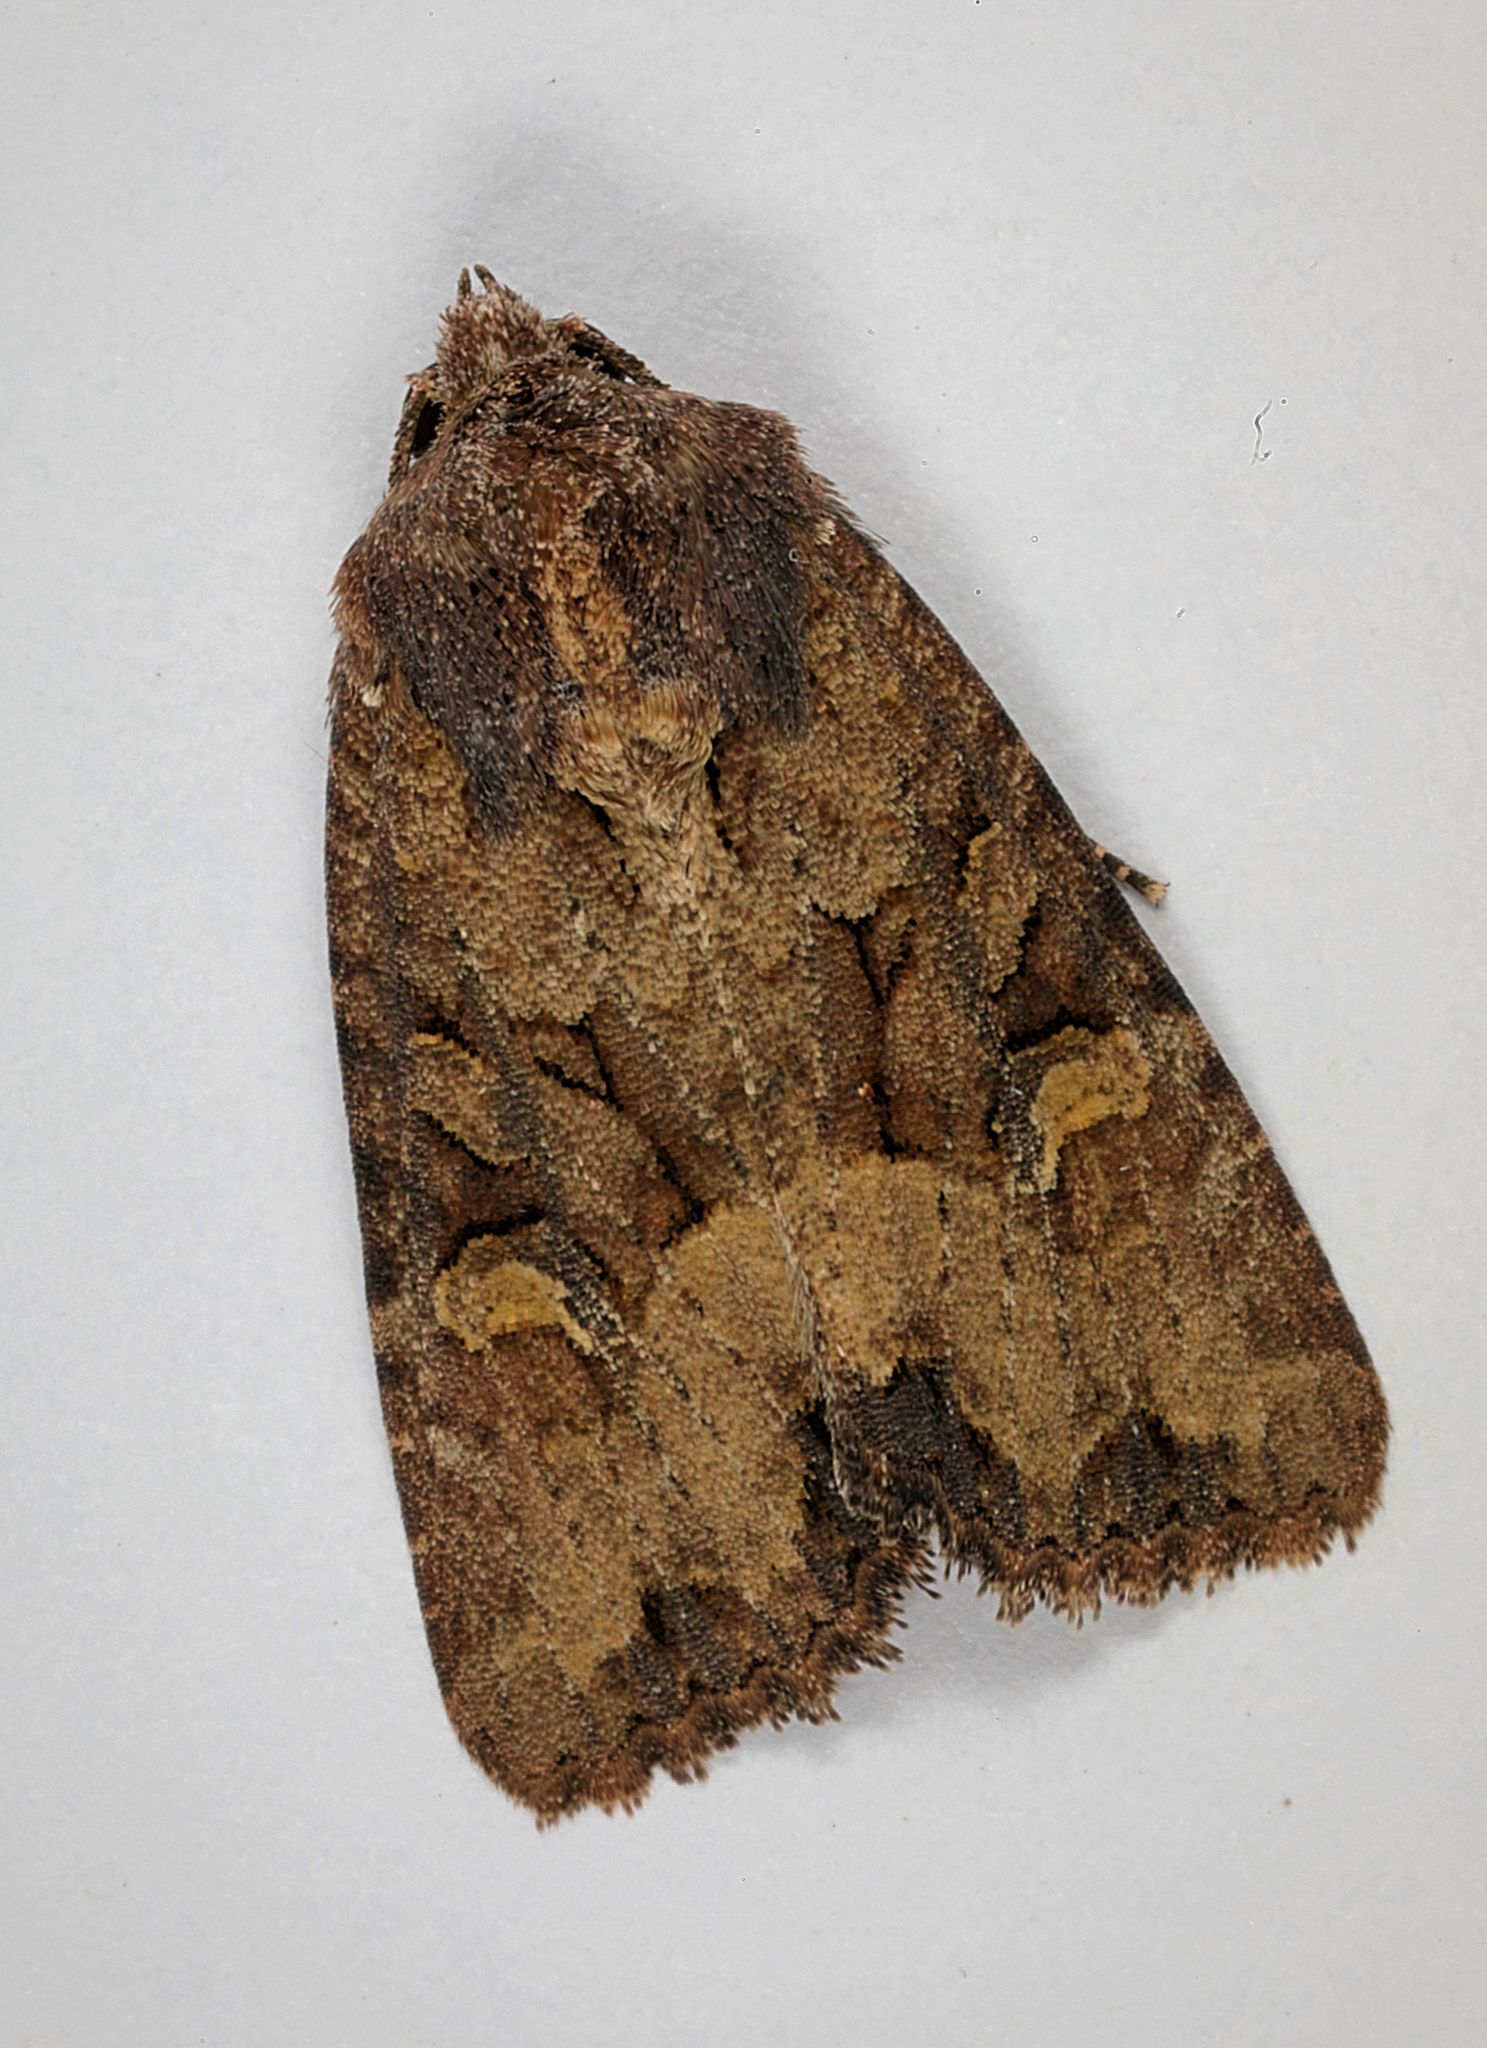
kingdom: Animalia
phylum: Arthropoda
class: Insecta
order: Lepidoptera
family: Noctuidae
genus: Mesapamea
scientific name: Mesapamea secalis
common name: Common rustic
